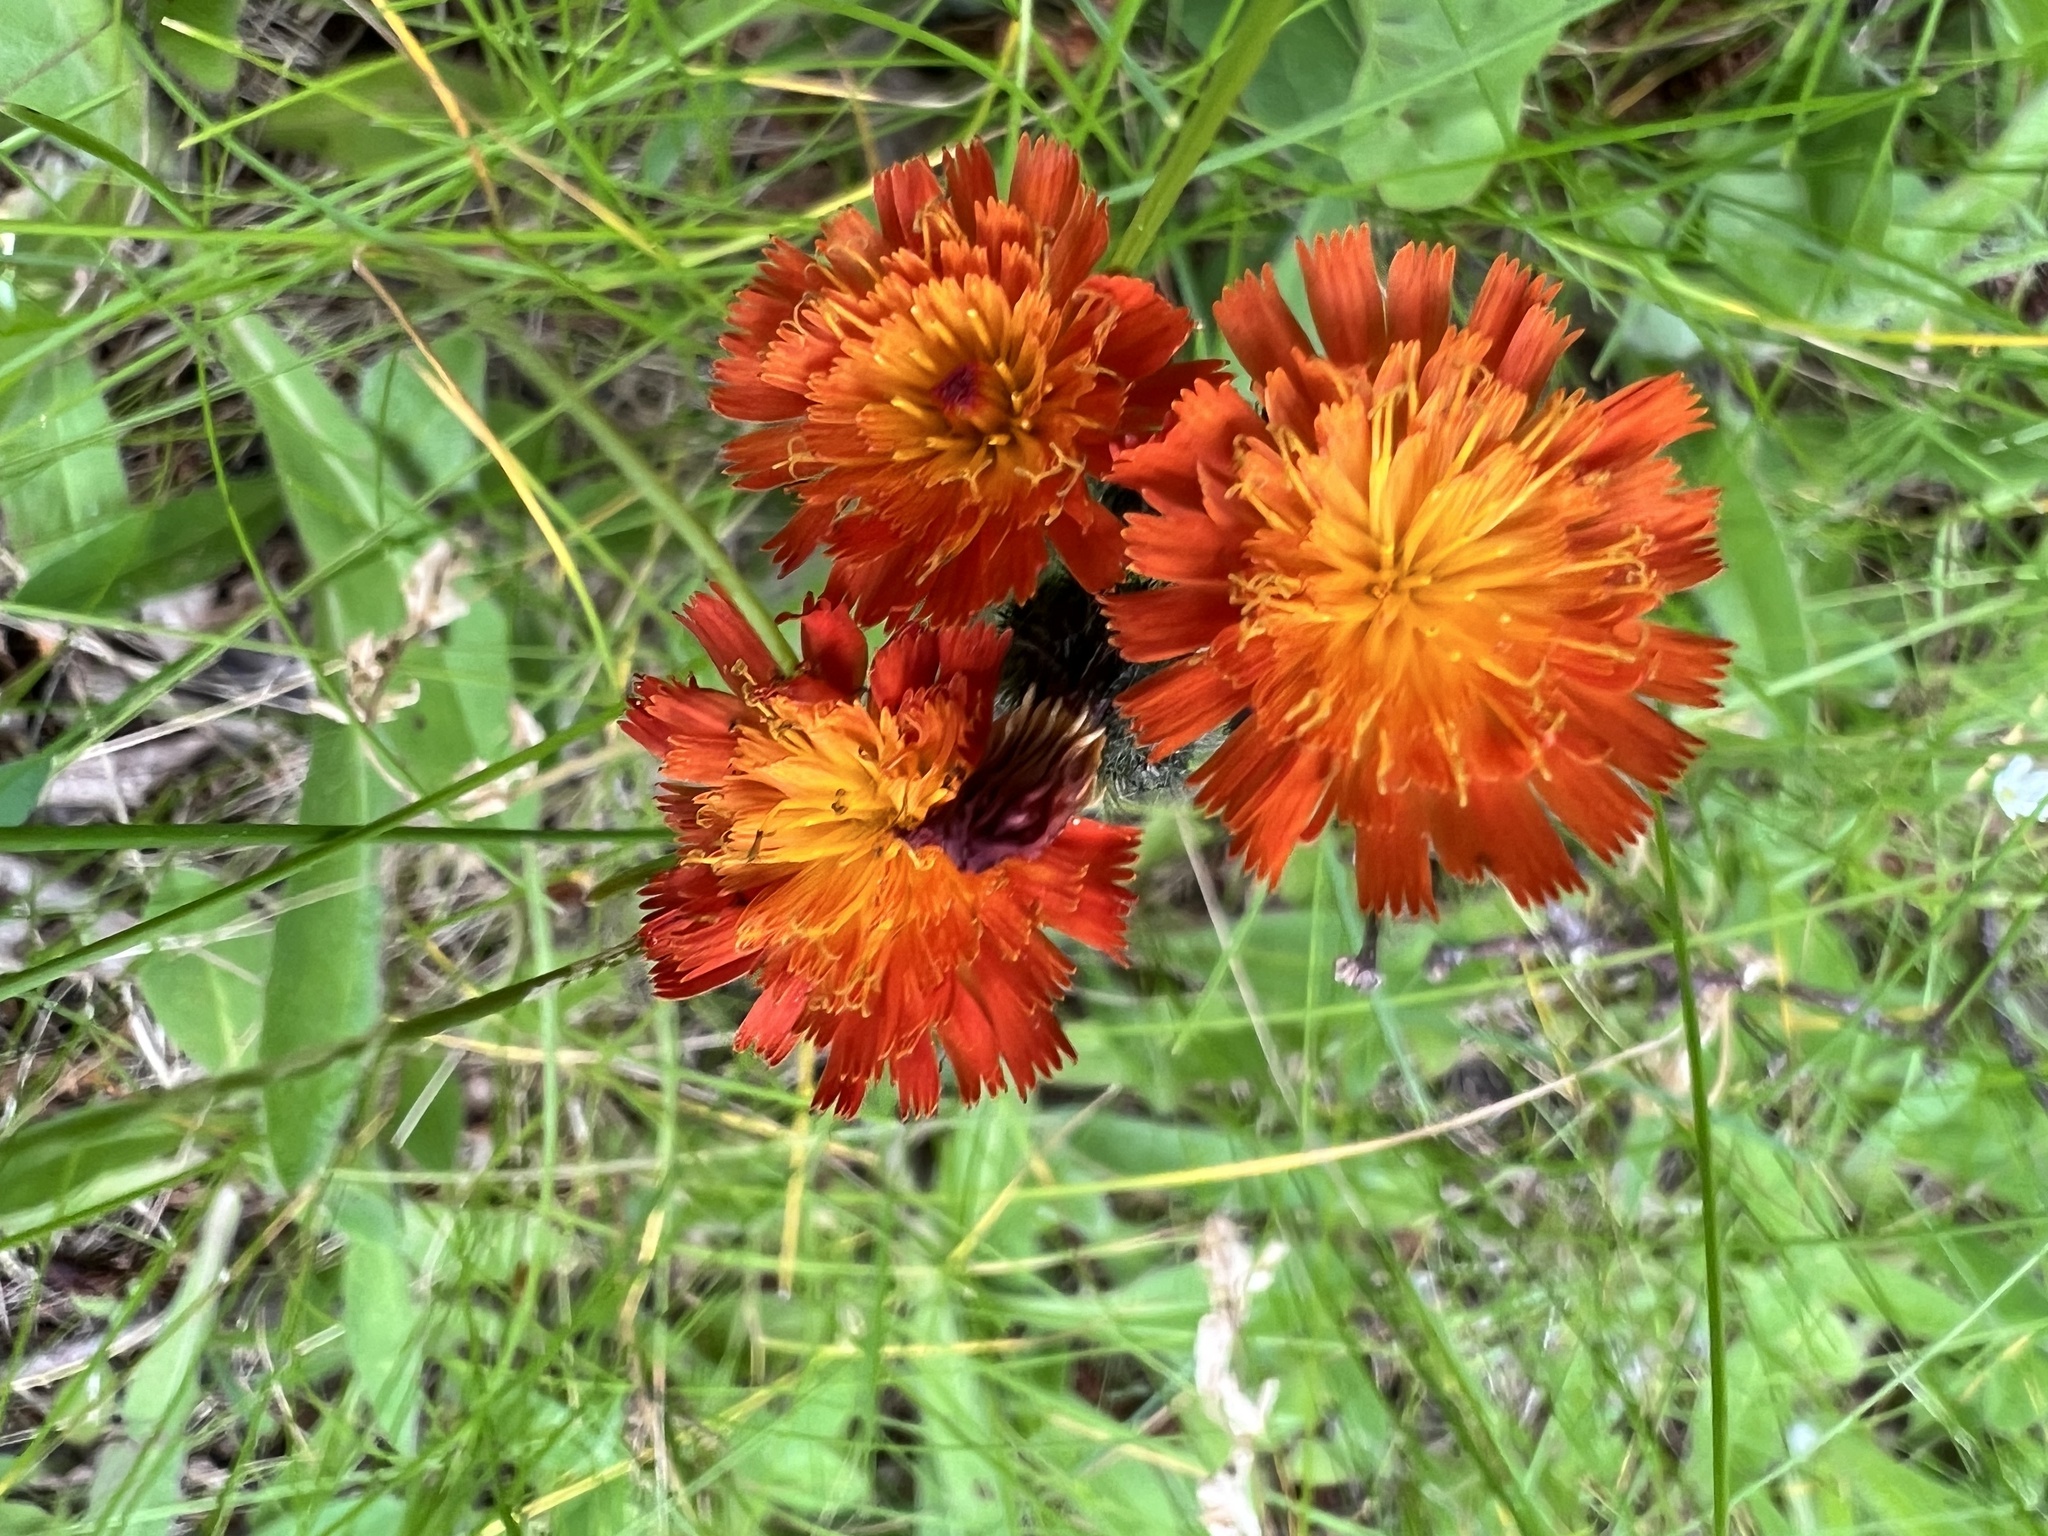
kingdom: Plantae
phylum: Tracheophyta
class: Magnoliopsida
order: Asterales
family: Asteraceae
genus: Pilosella
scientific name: Pilosella aurantiaca
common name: Fox-and-cubs
